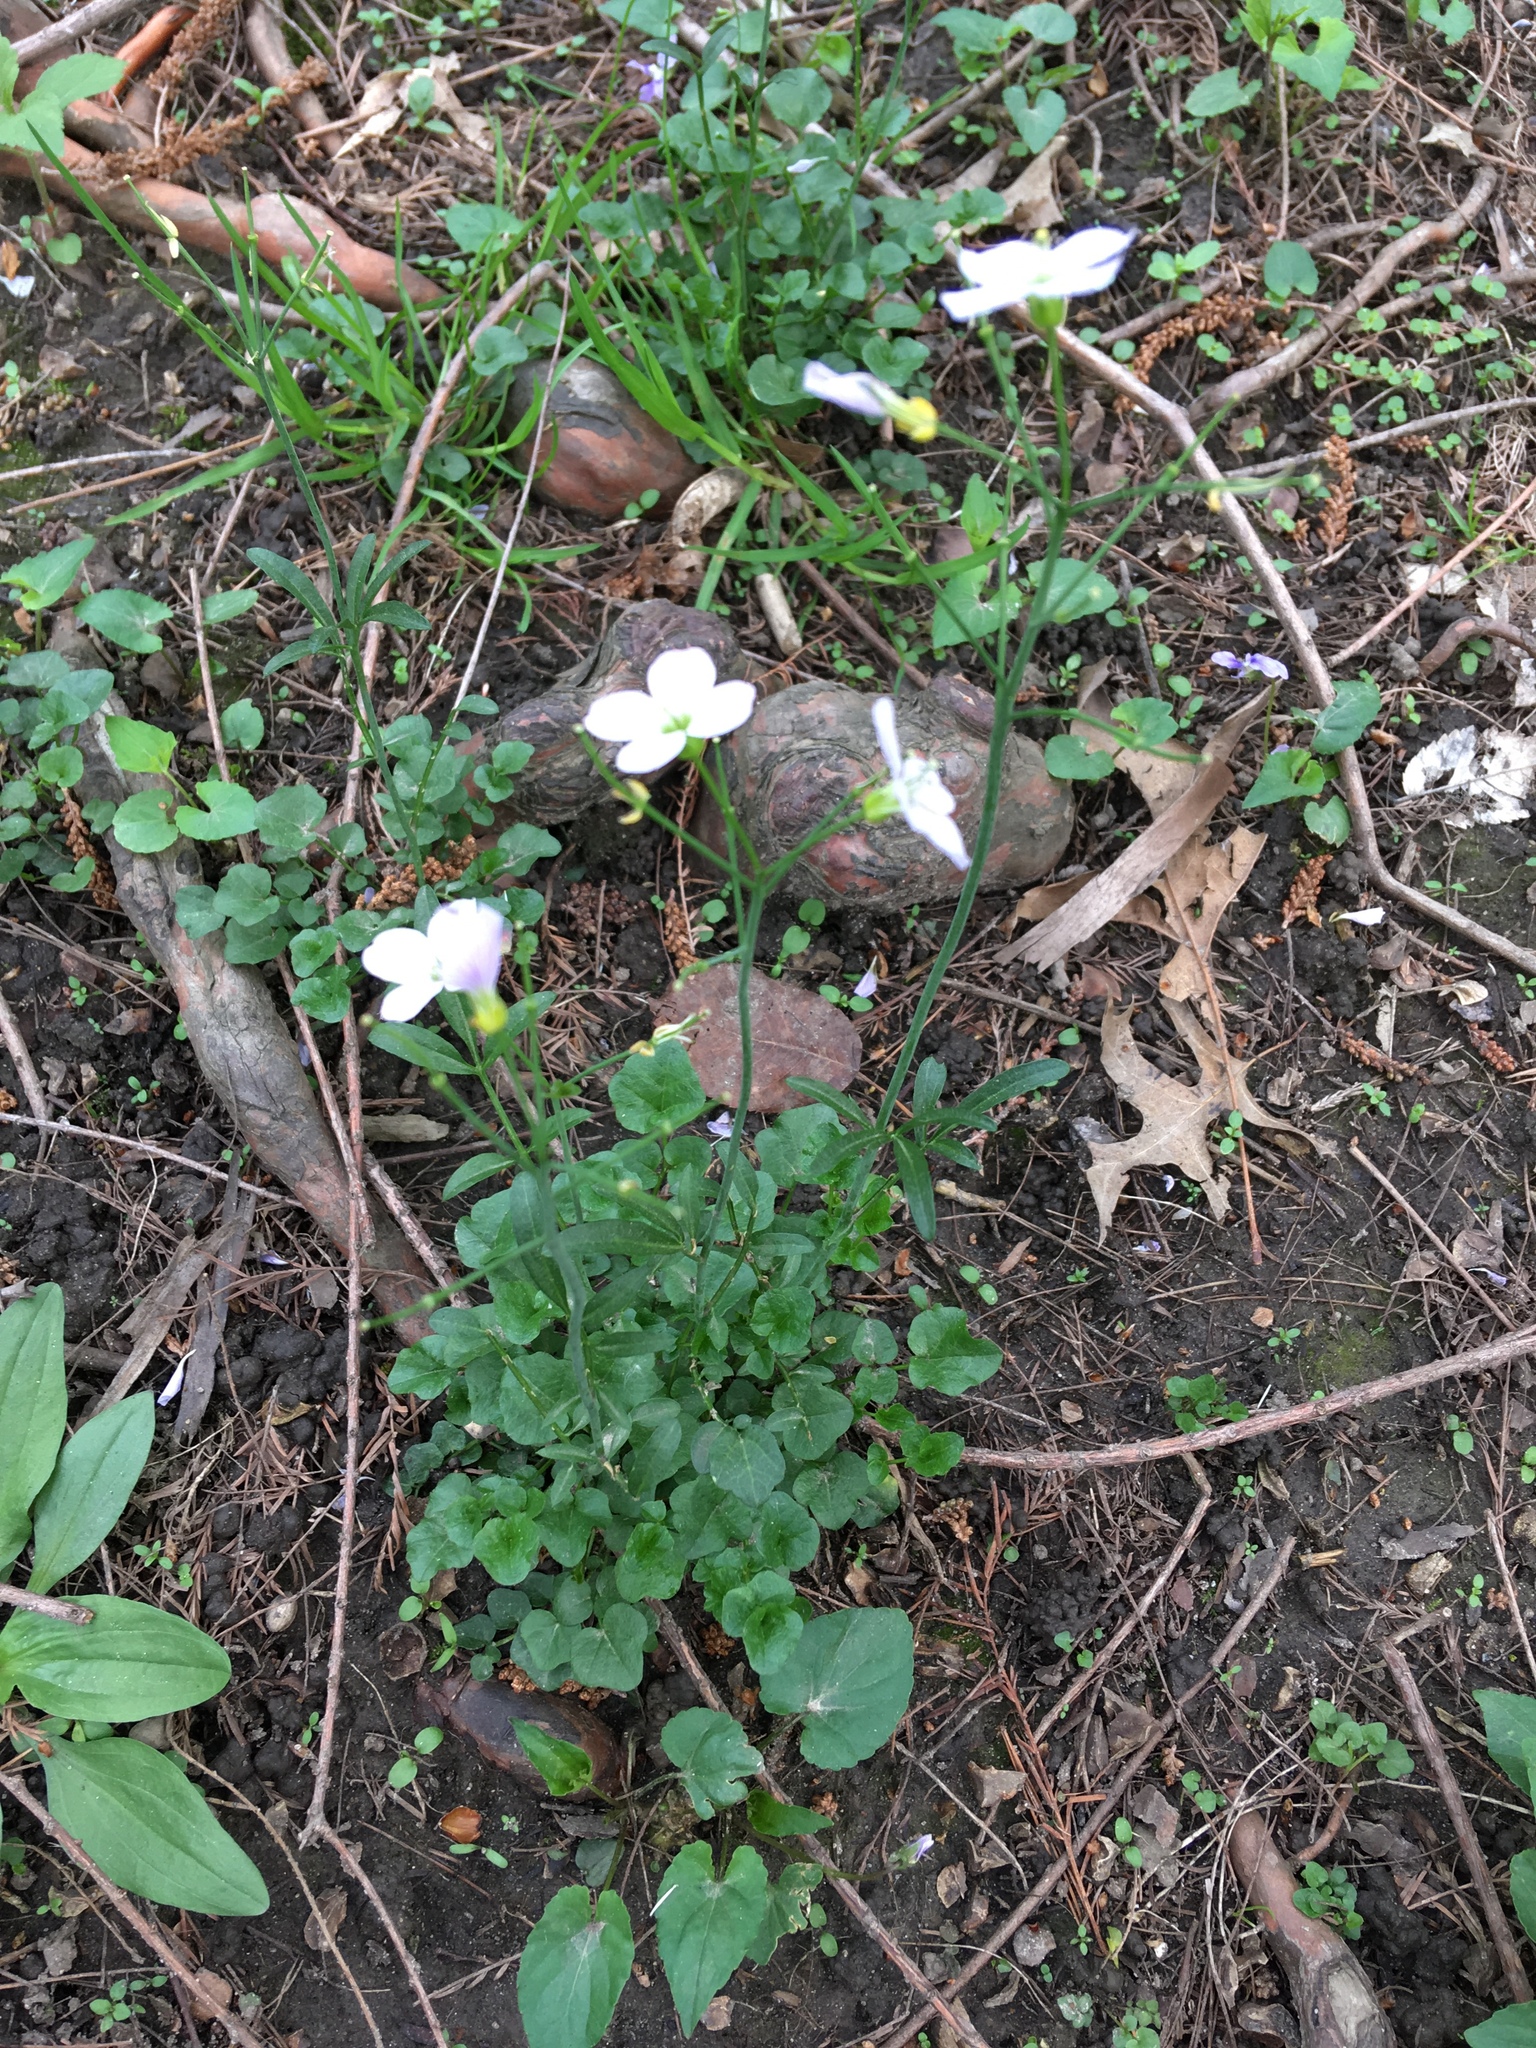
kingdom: Plantae
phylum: Tracheophyta
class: Magnoliopsida
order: Brassicales
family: Brassicaceae
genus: Cardamine
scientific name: Cardamine pratensis
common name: Cuckoo flower
